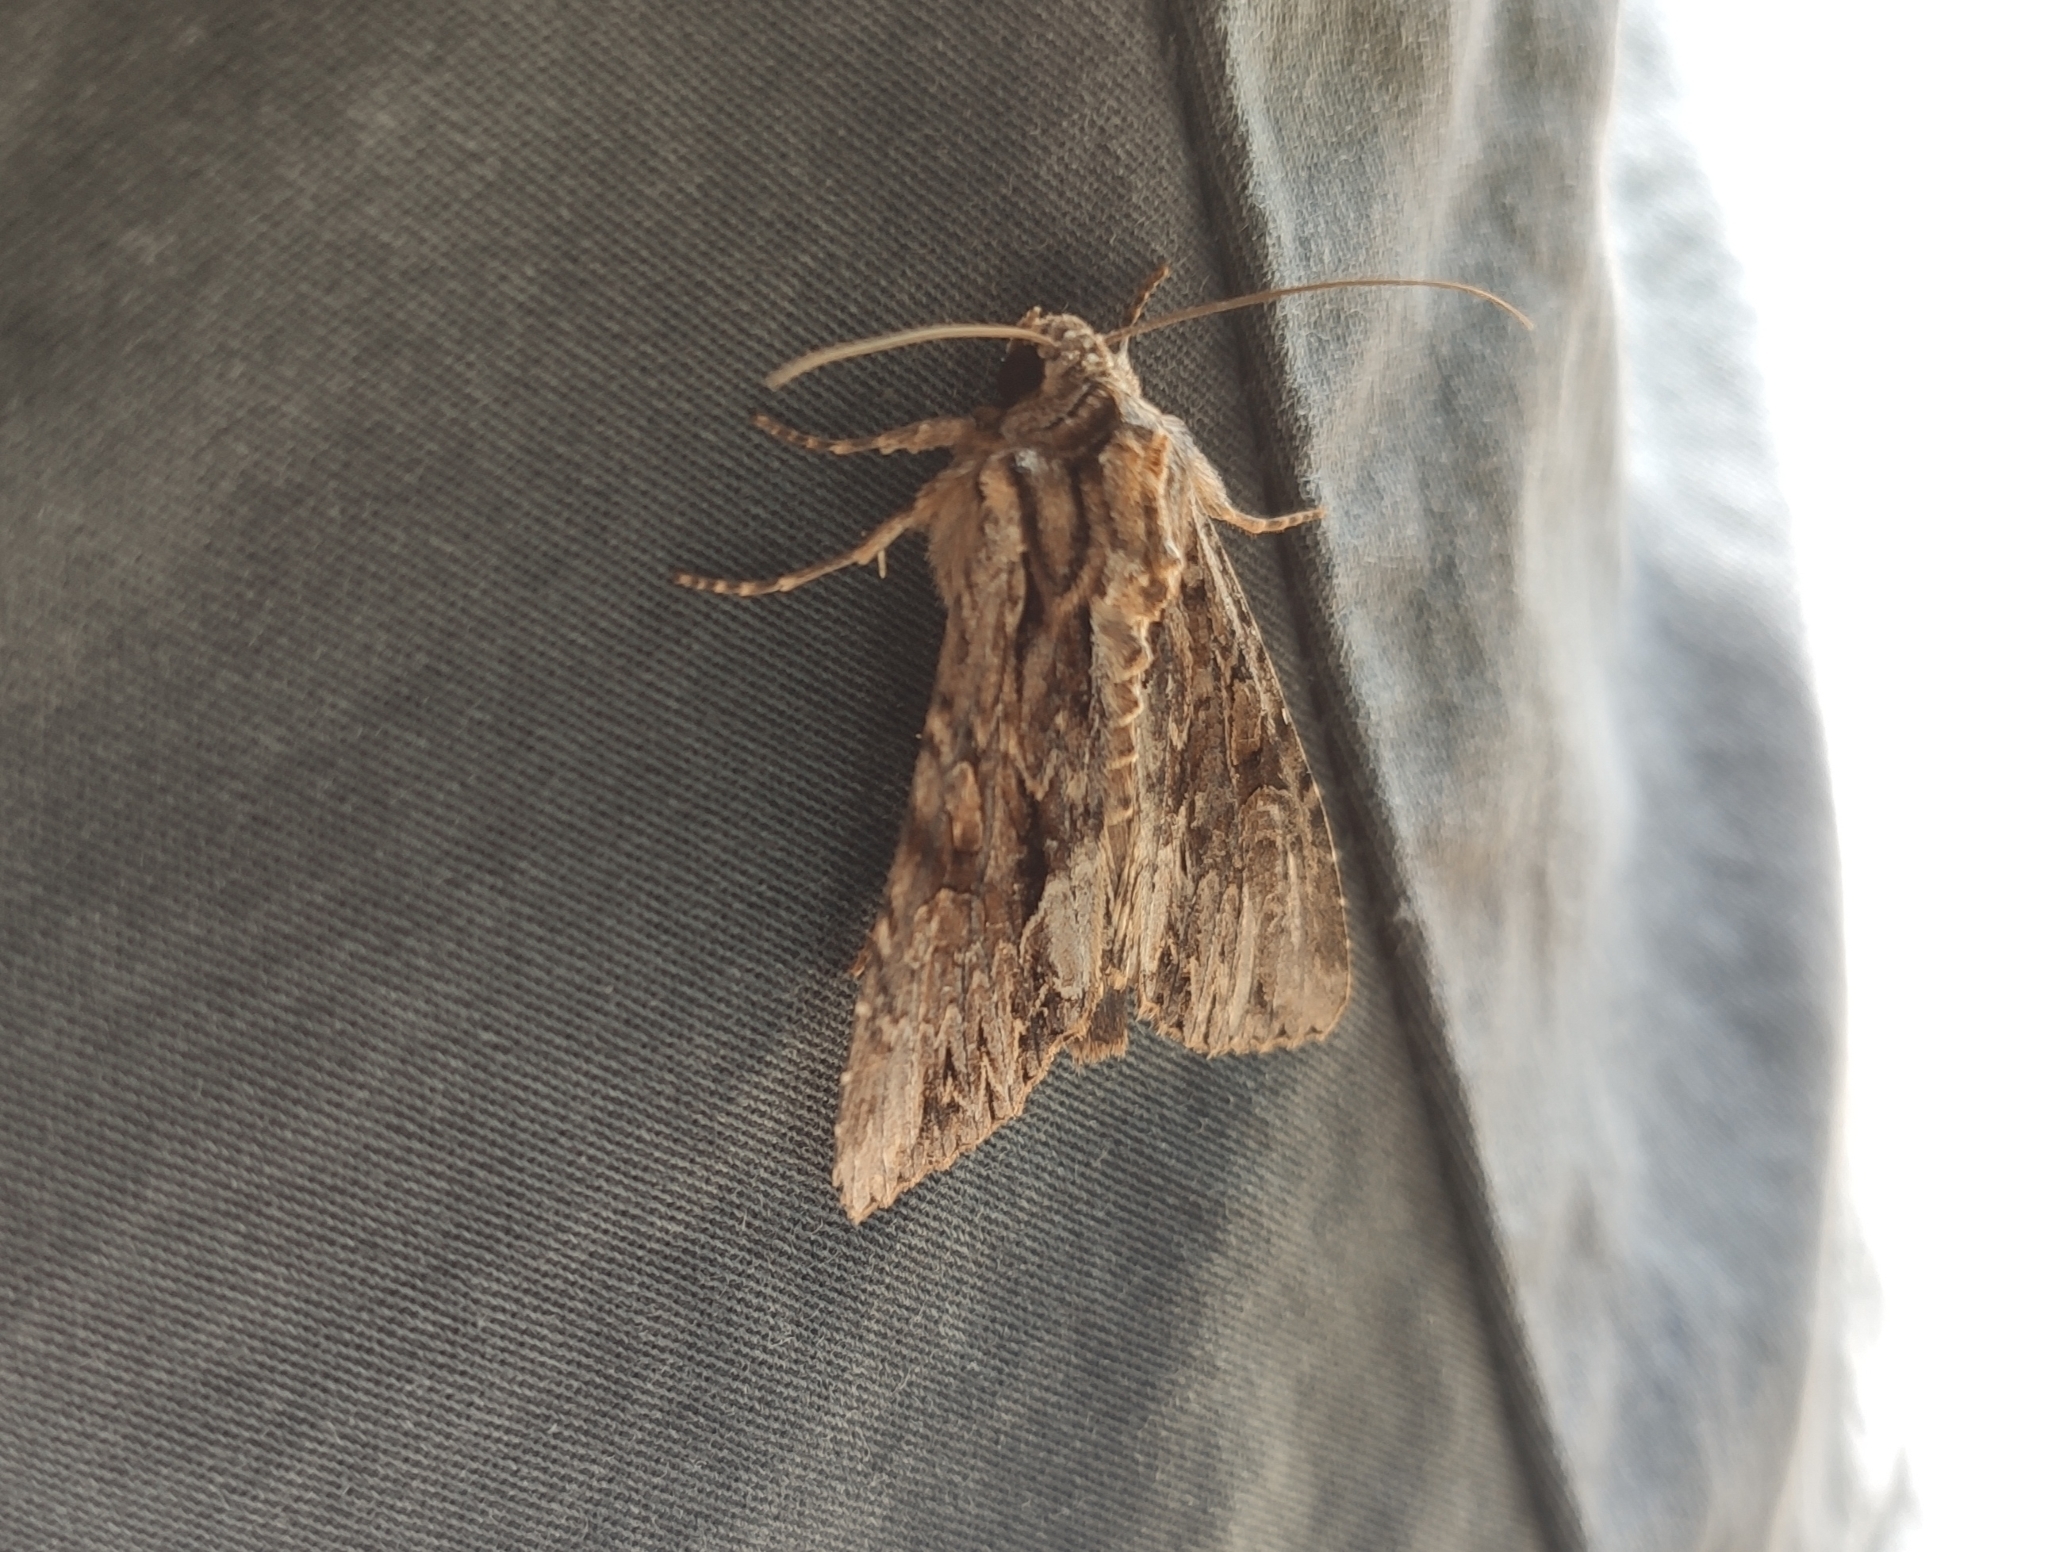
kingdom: Animalia
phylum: Arthropoda
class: Insecta
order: Lepidoptera
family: Noctuidae
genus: Apamea
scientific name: Apamea monoglypha
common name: Dark arches
